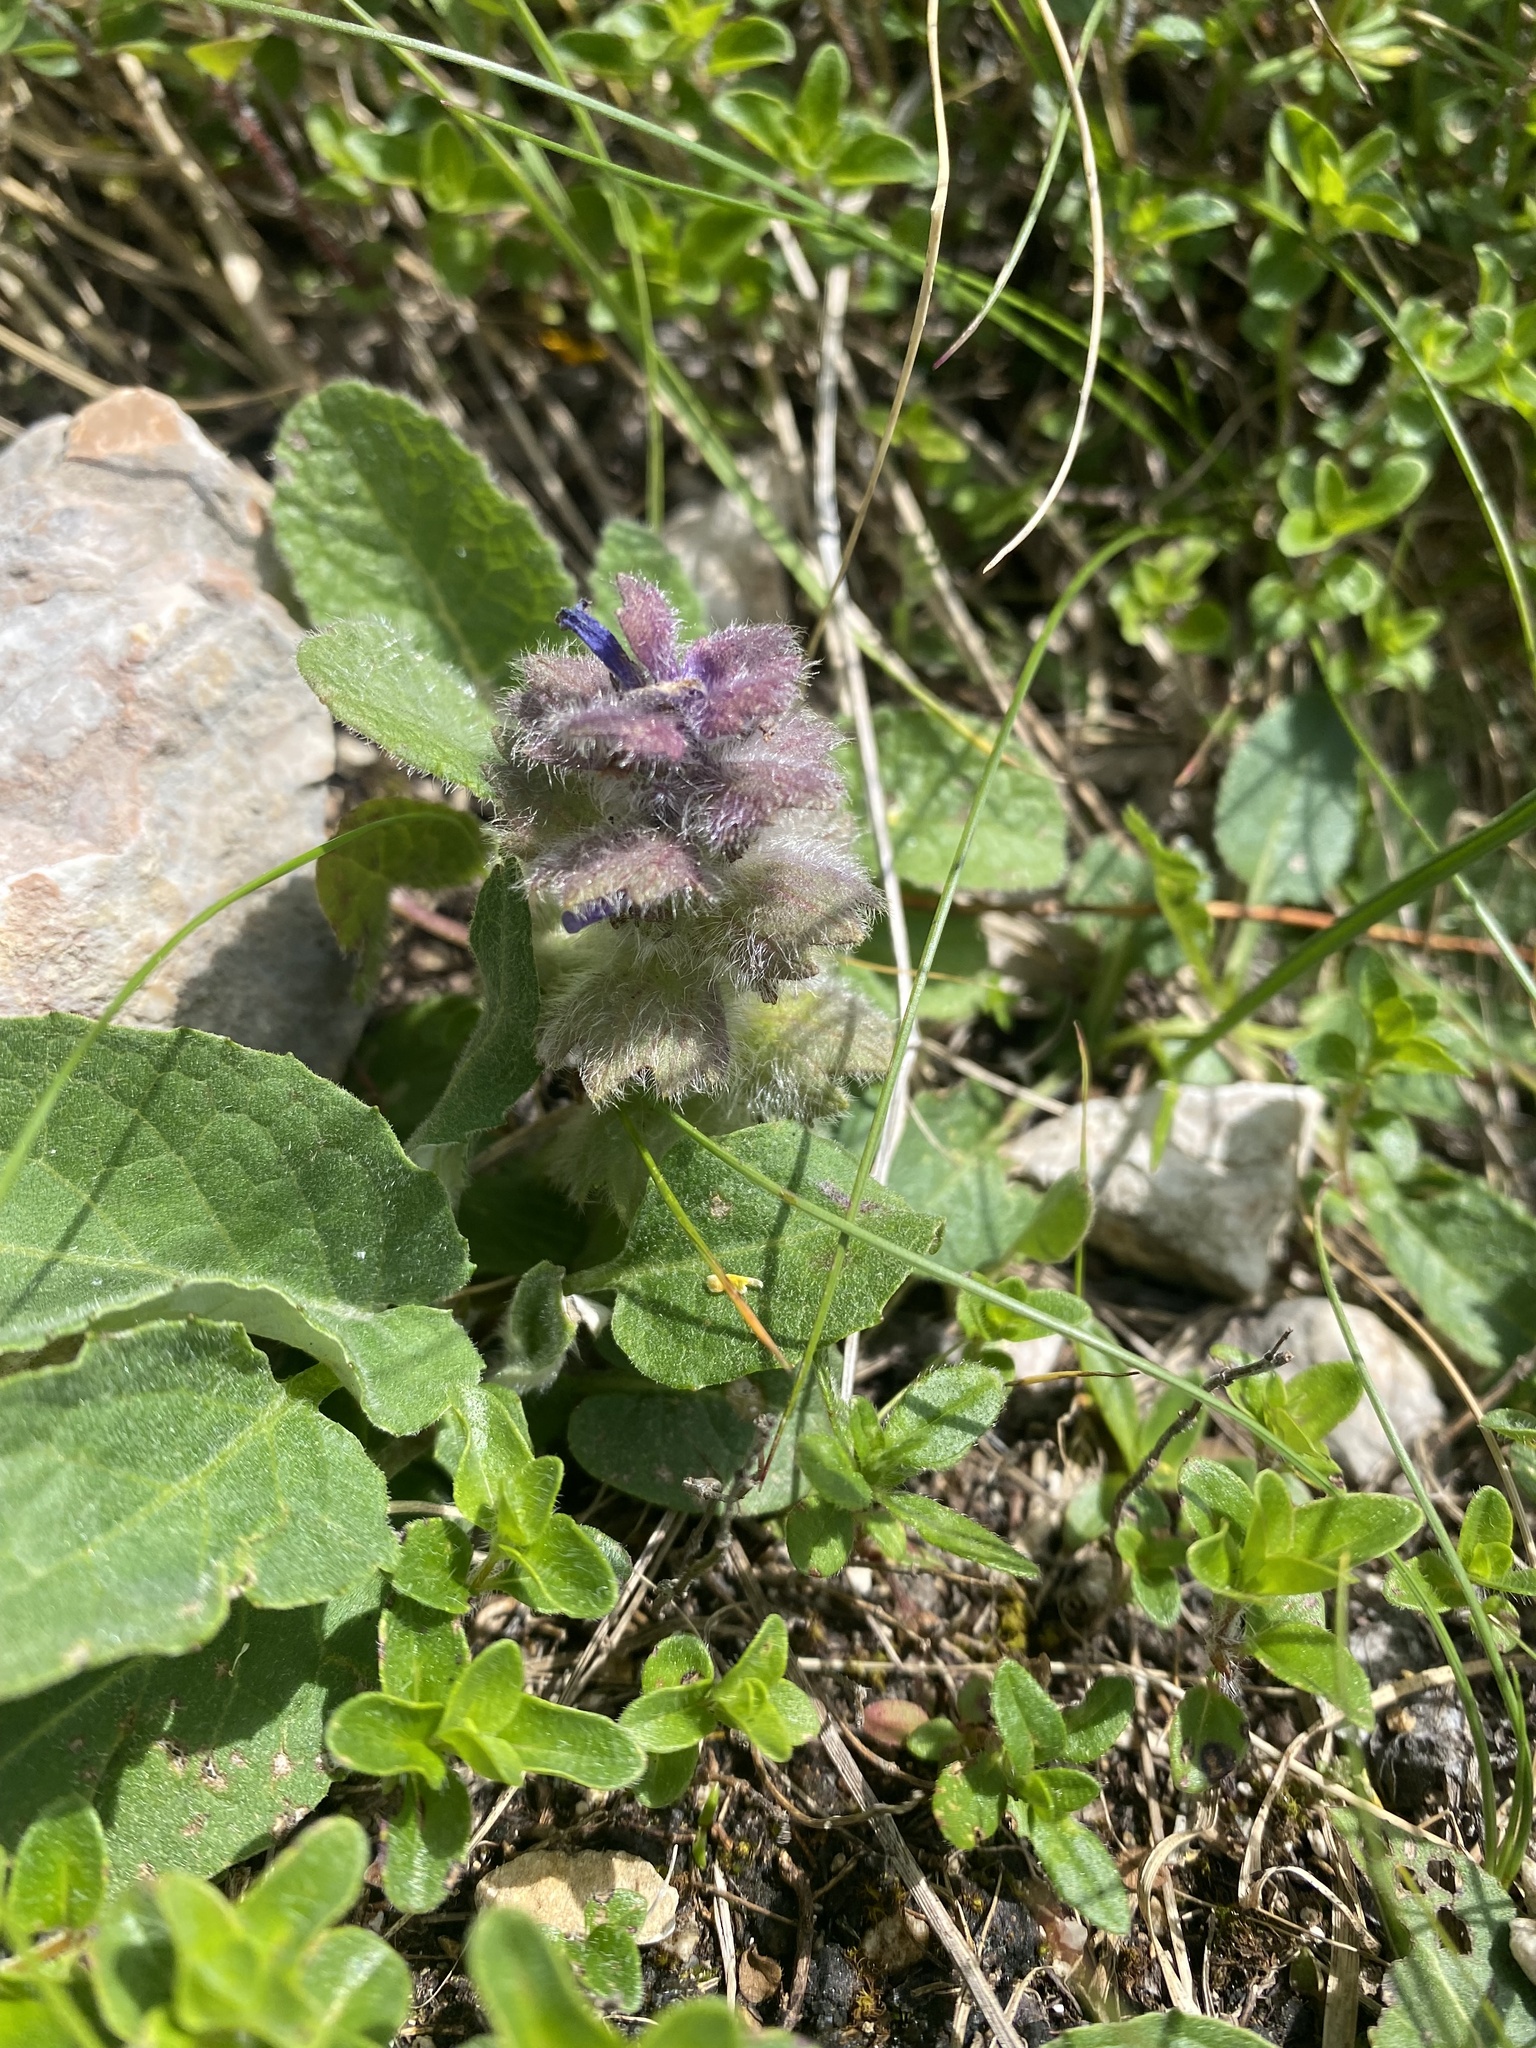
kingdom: Plantae
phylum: Tracheophyta
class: Magnoliopsida
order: Lamiales
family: Lamiaceae
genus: Ajuga
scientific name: Ajuga orientalis
